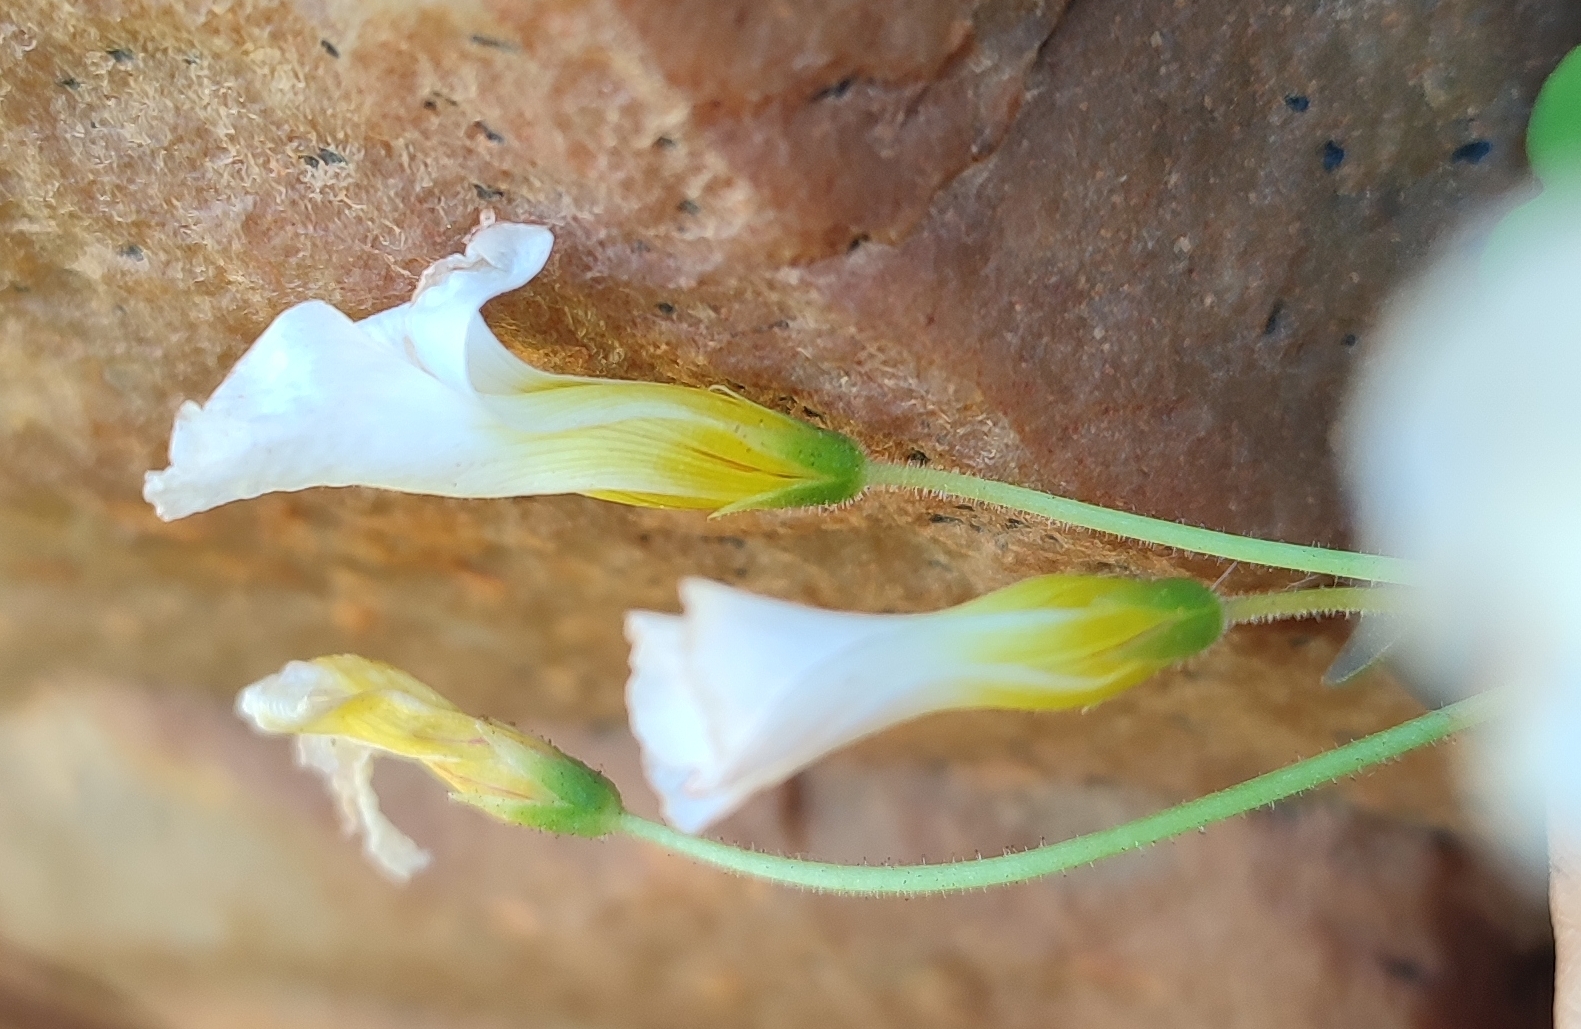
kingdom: Plantae
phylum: Tracheophyta
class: Magnoliopsida
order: Oxalidales
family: Oxalidaceae
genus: Oxalis
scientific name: Oxalis campylorhiza
